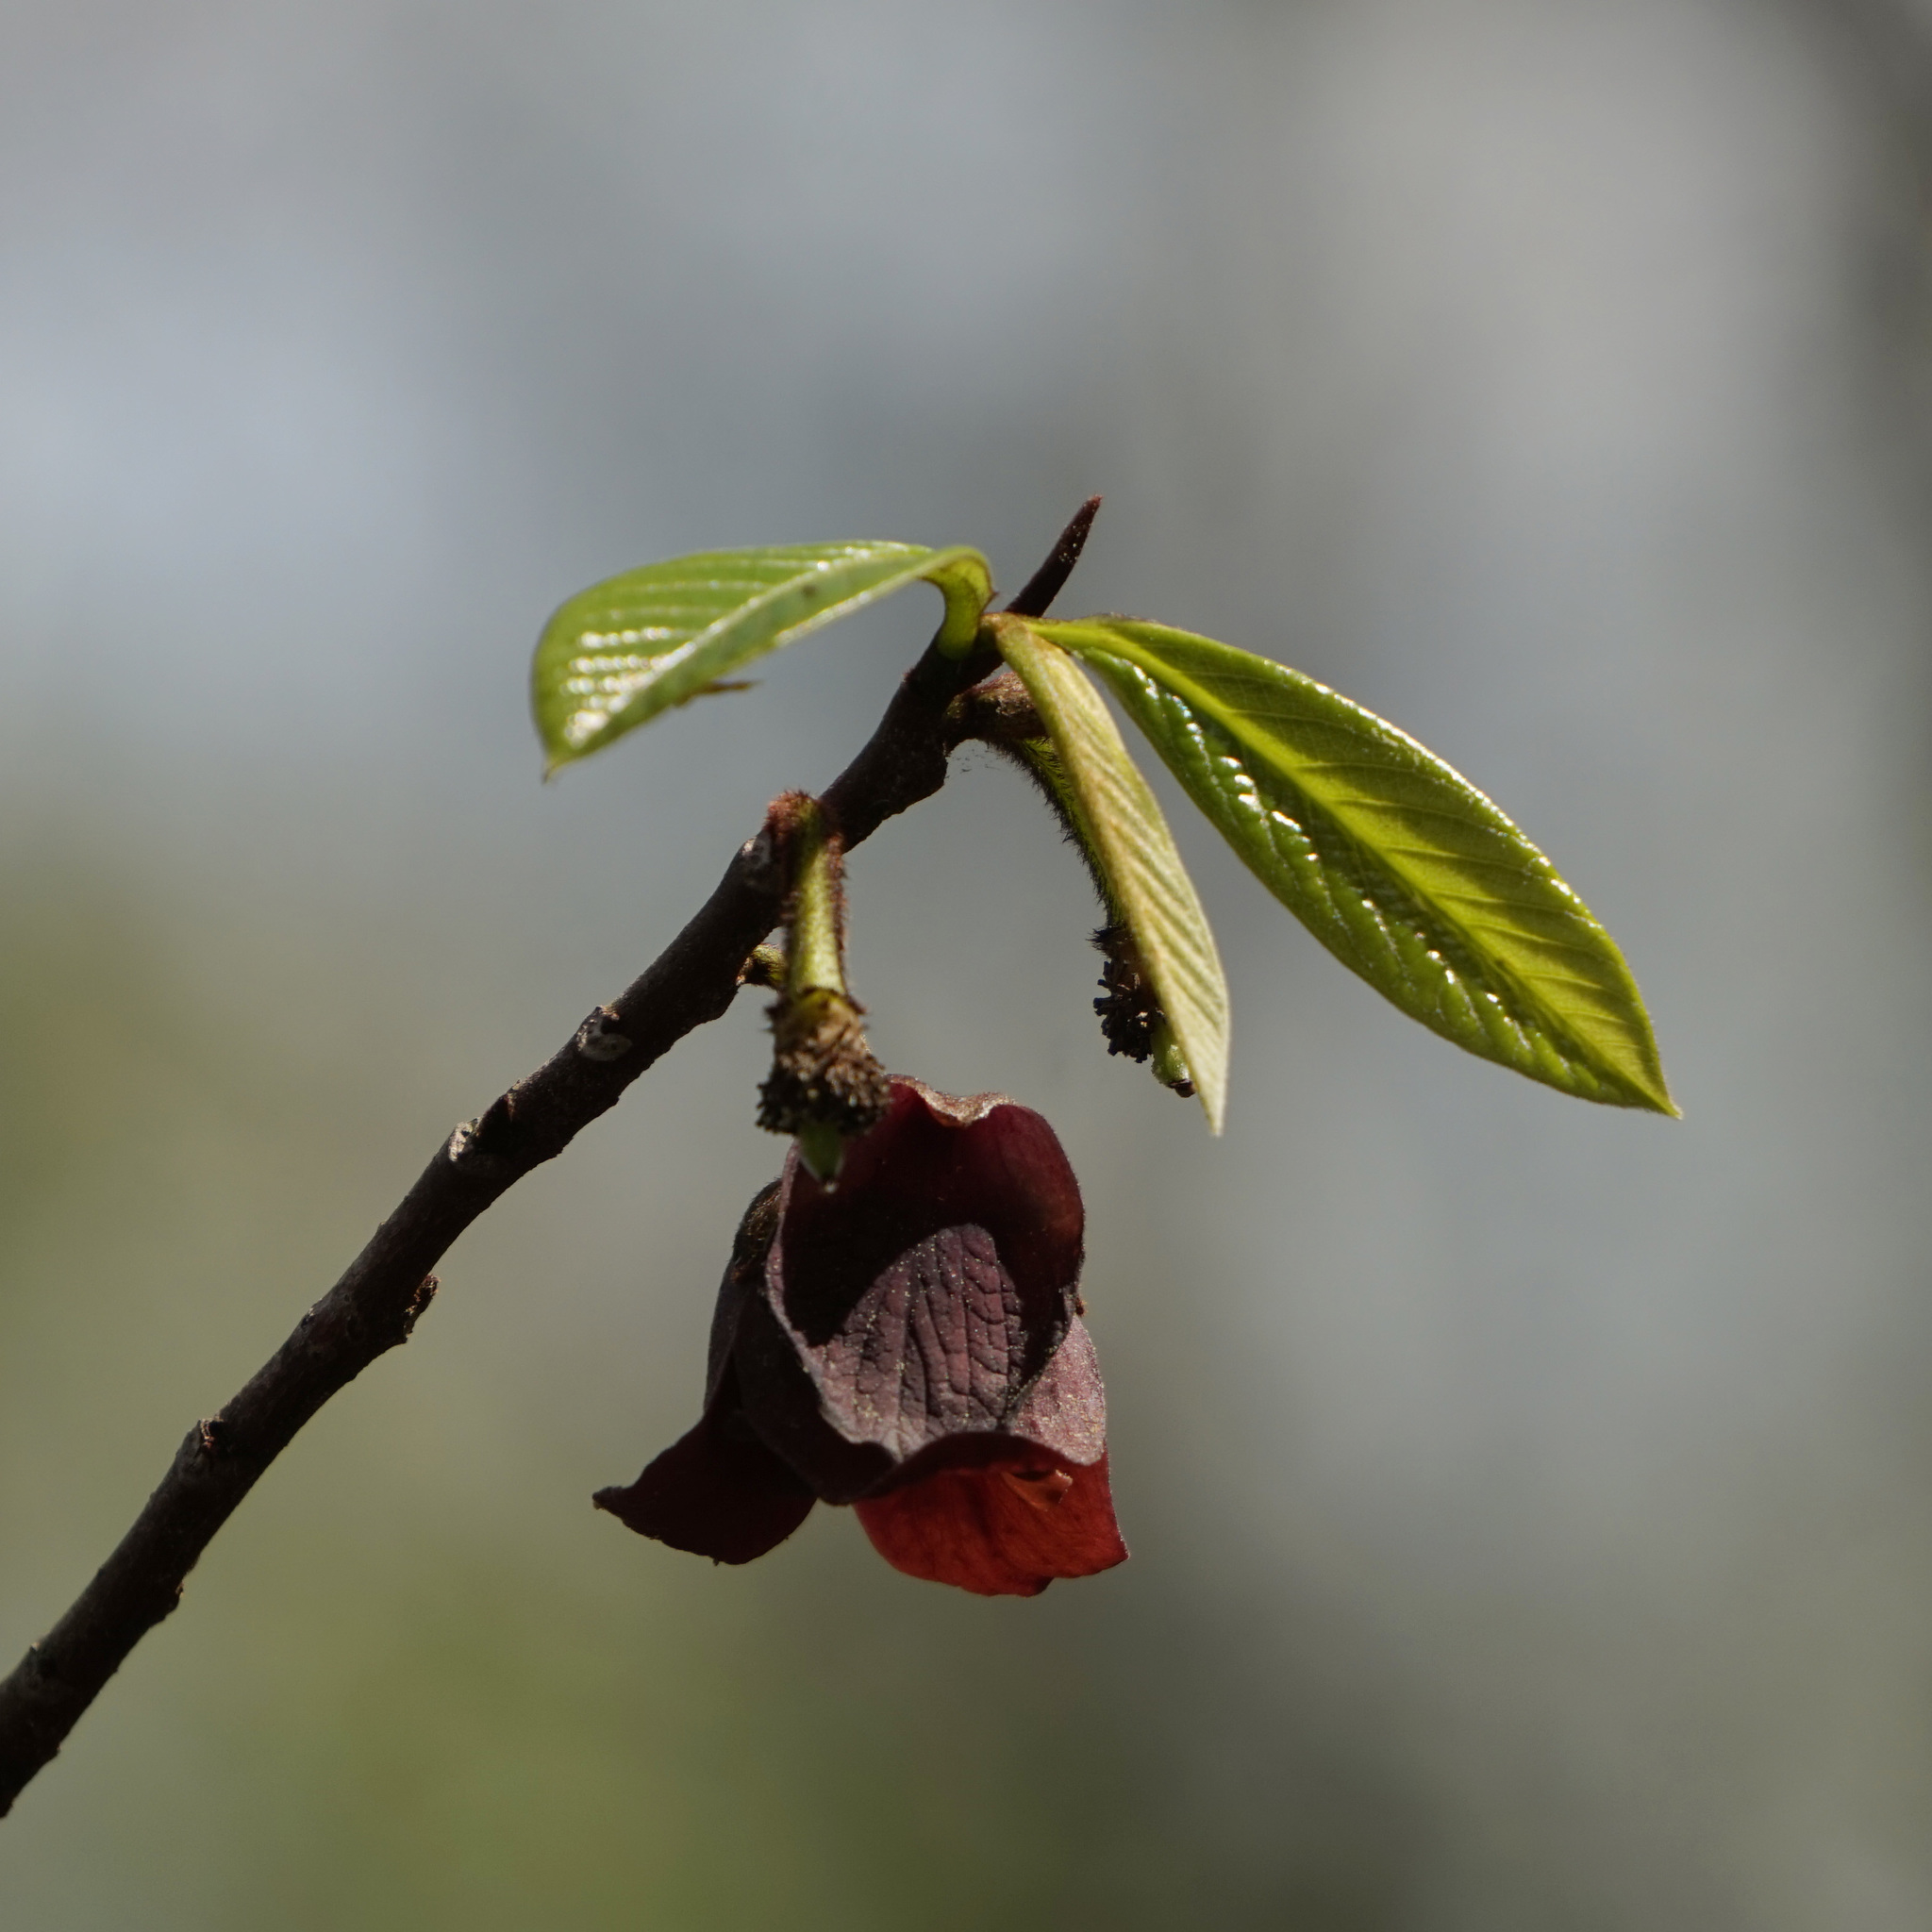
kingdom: Plantae
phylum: Tracheophyta
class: Magnoliopsida
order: Magnoliales
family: Annonaceae
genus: Asimina
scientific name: Asimina triloba
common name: Dog-banana
